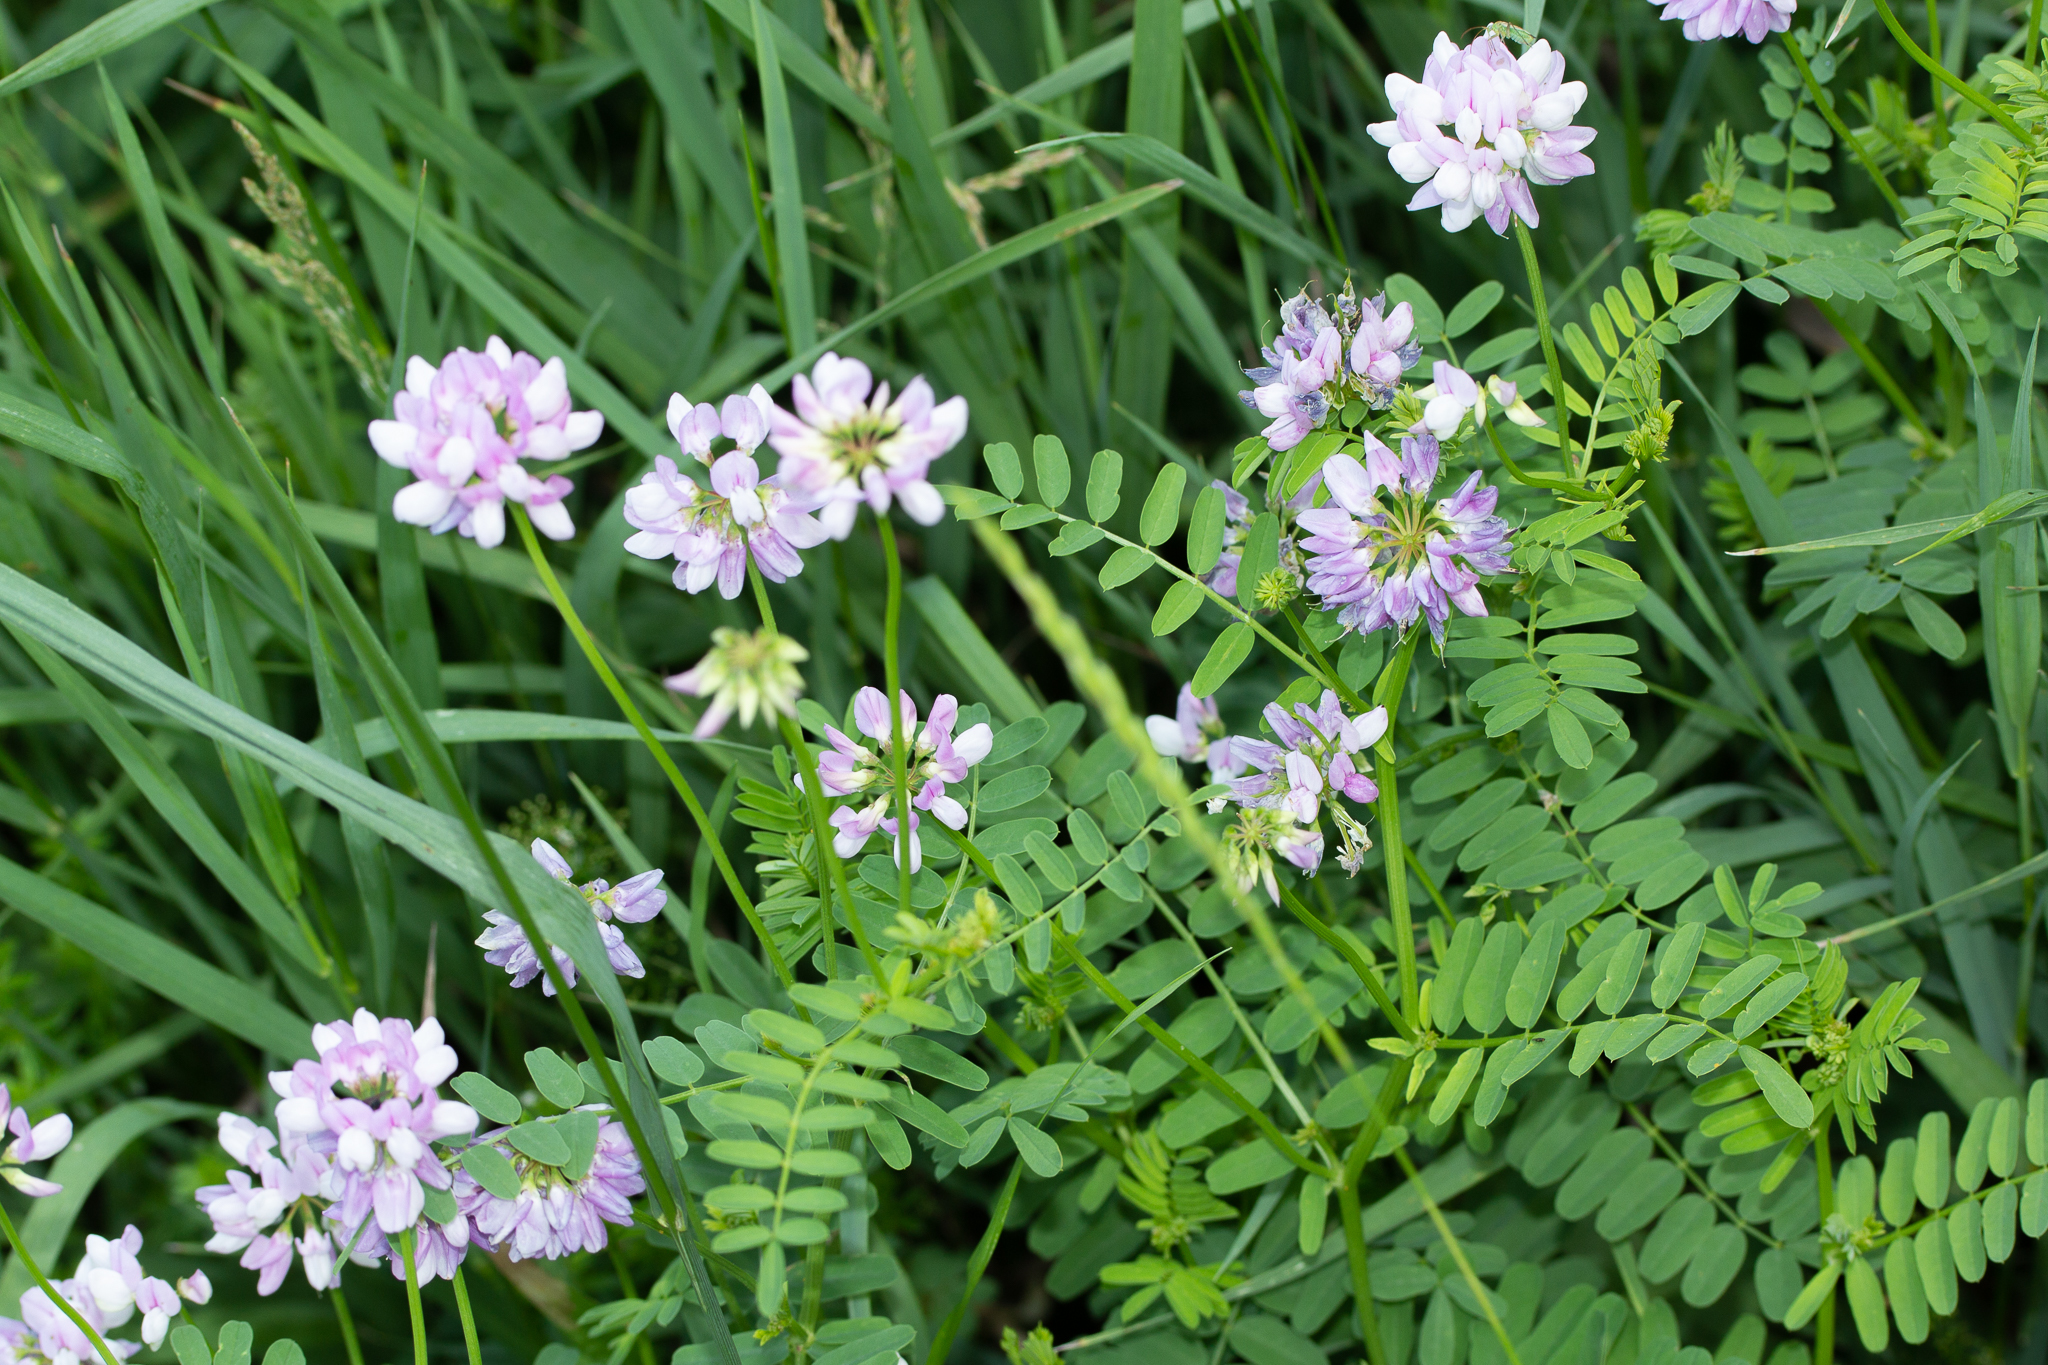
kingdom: Plantae
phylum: Tracheophyta
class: Magnoliopsida
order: Fabales
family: Fabaceae
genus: Coronilla
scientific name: Coronilla varia
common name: Crownvetch
